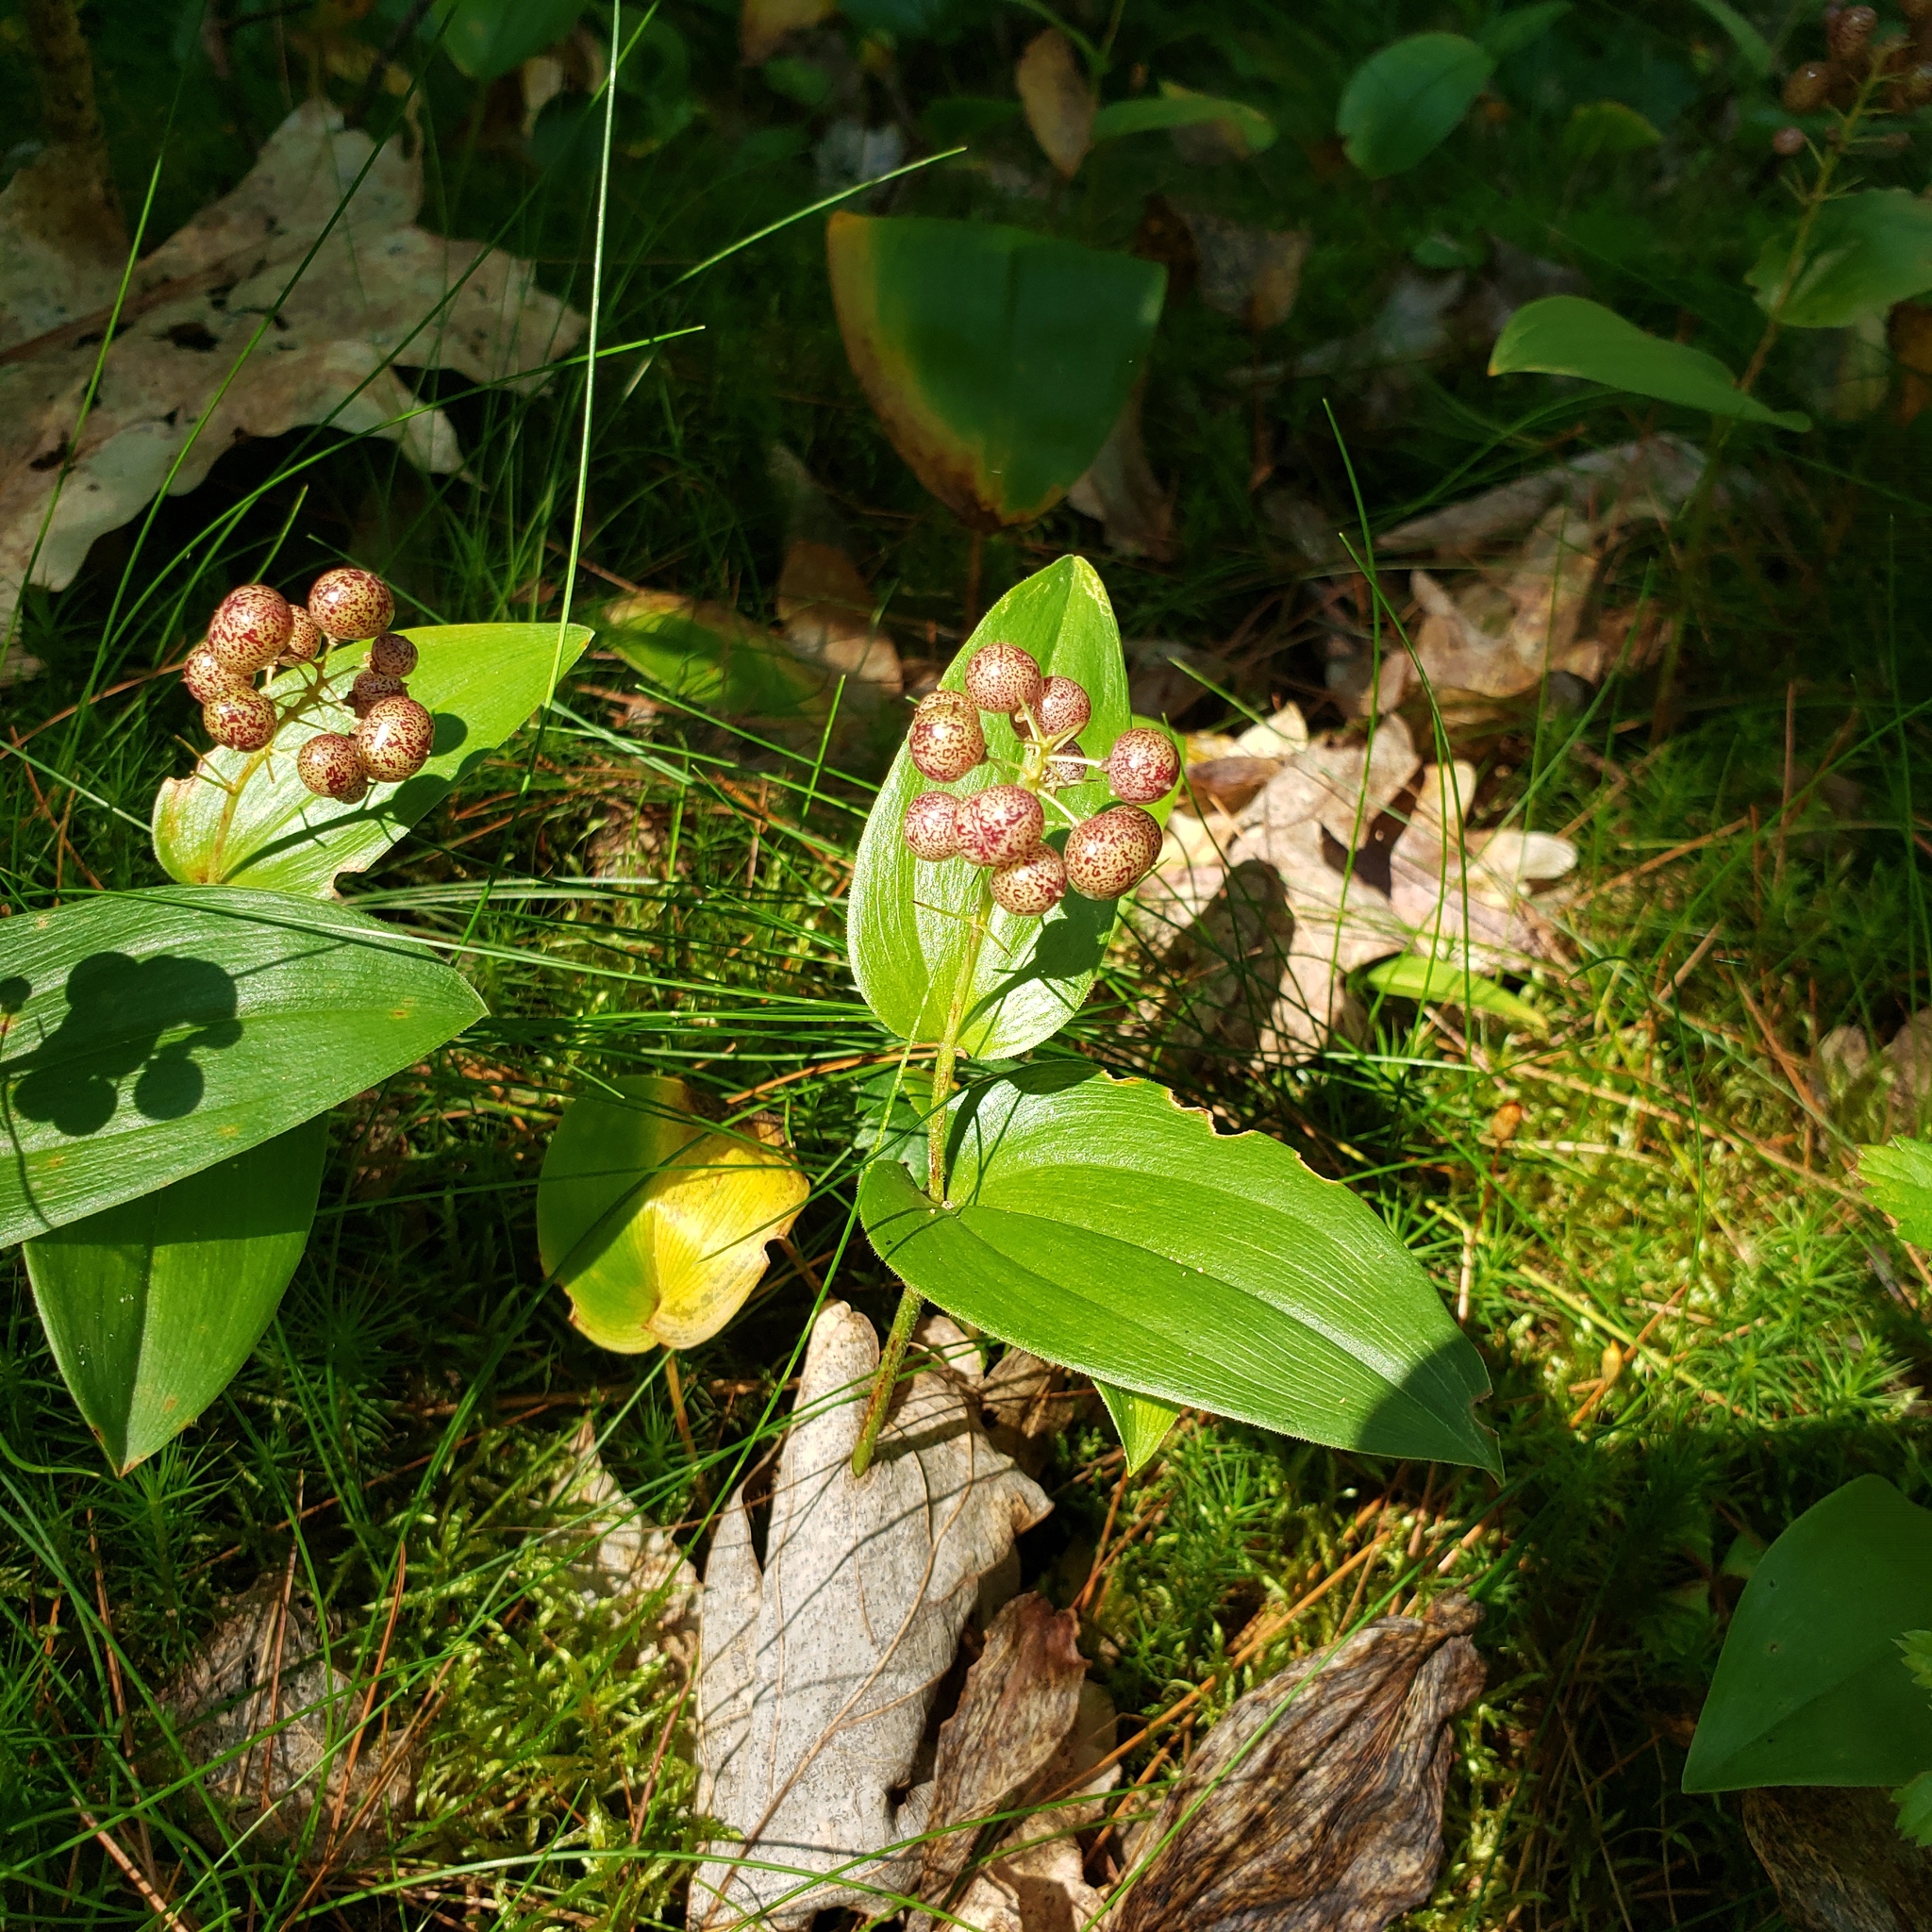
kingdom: Plantae
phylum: Tracheophyta
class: Liliopsida
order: Asparagales
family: Asparagaceae
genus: Maianthemum
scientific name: Maianthemum canadense
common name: False lily-of-the-valley
